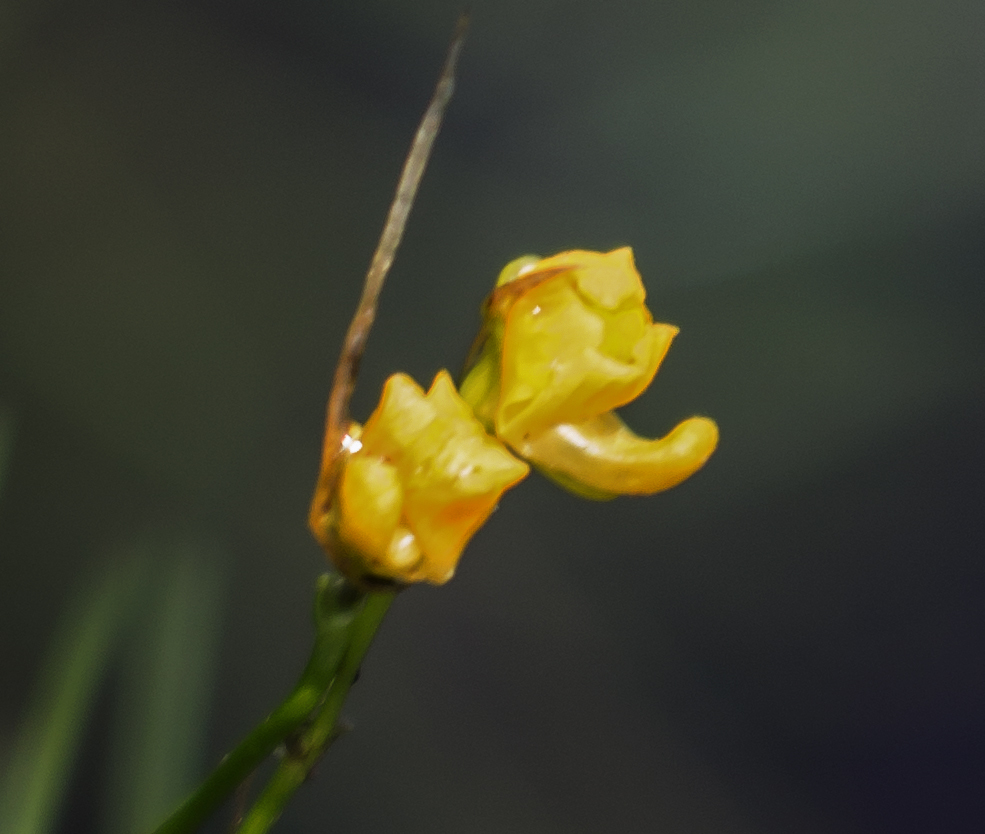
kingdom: Plantae
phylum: Tracheophyta
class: Magnoliopsida
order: Lamiales
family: Lentibulariaceae
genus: Utricularia
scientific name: Utricularia gibba
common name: Humped bladderwort
